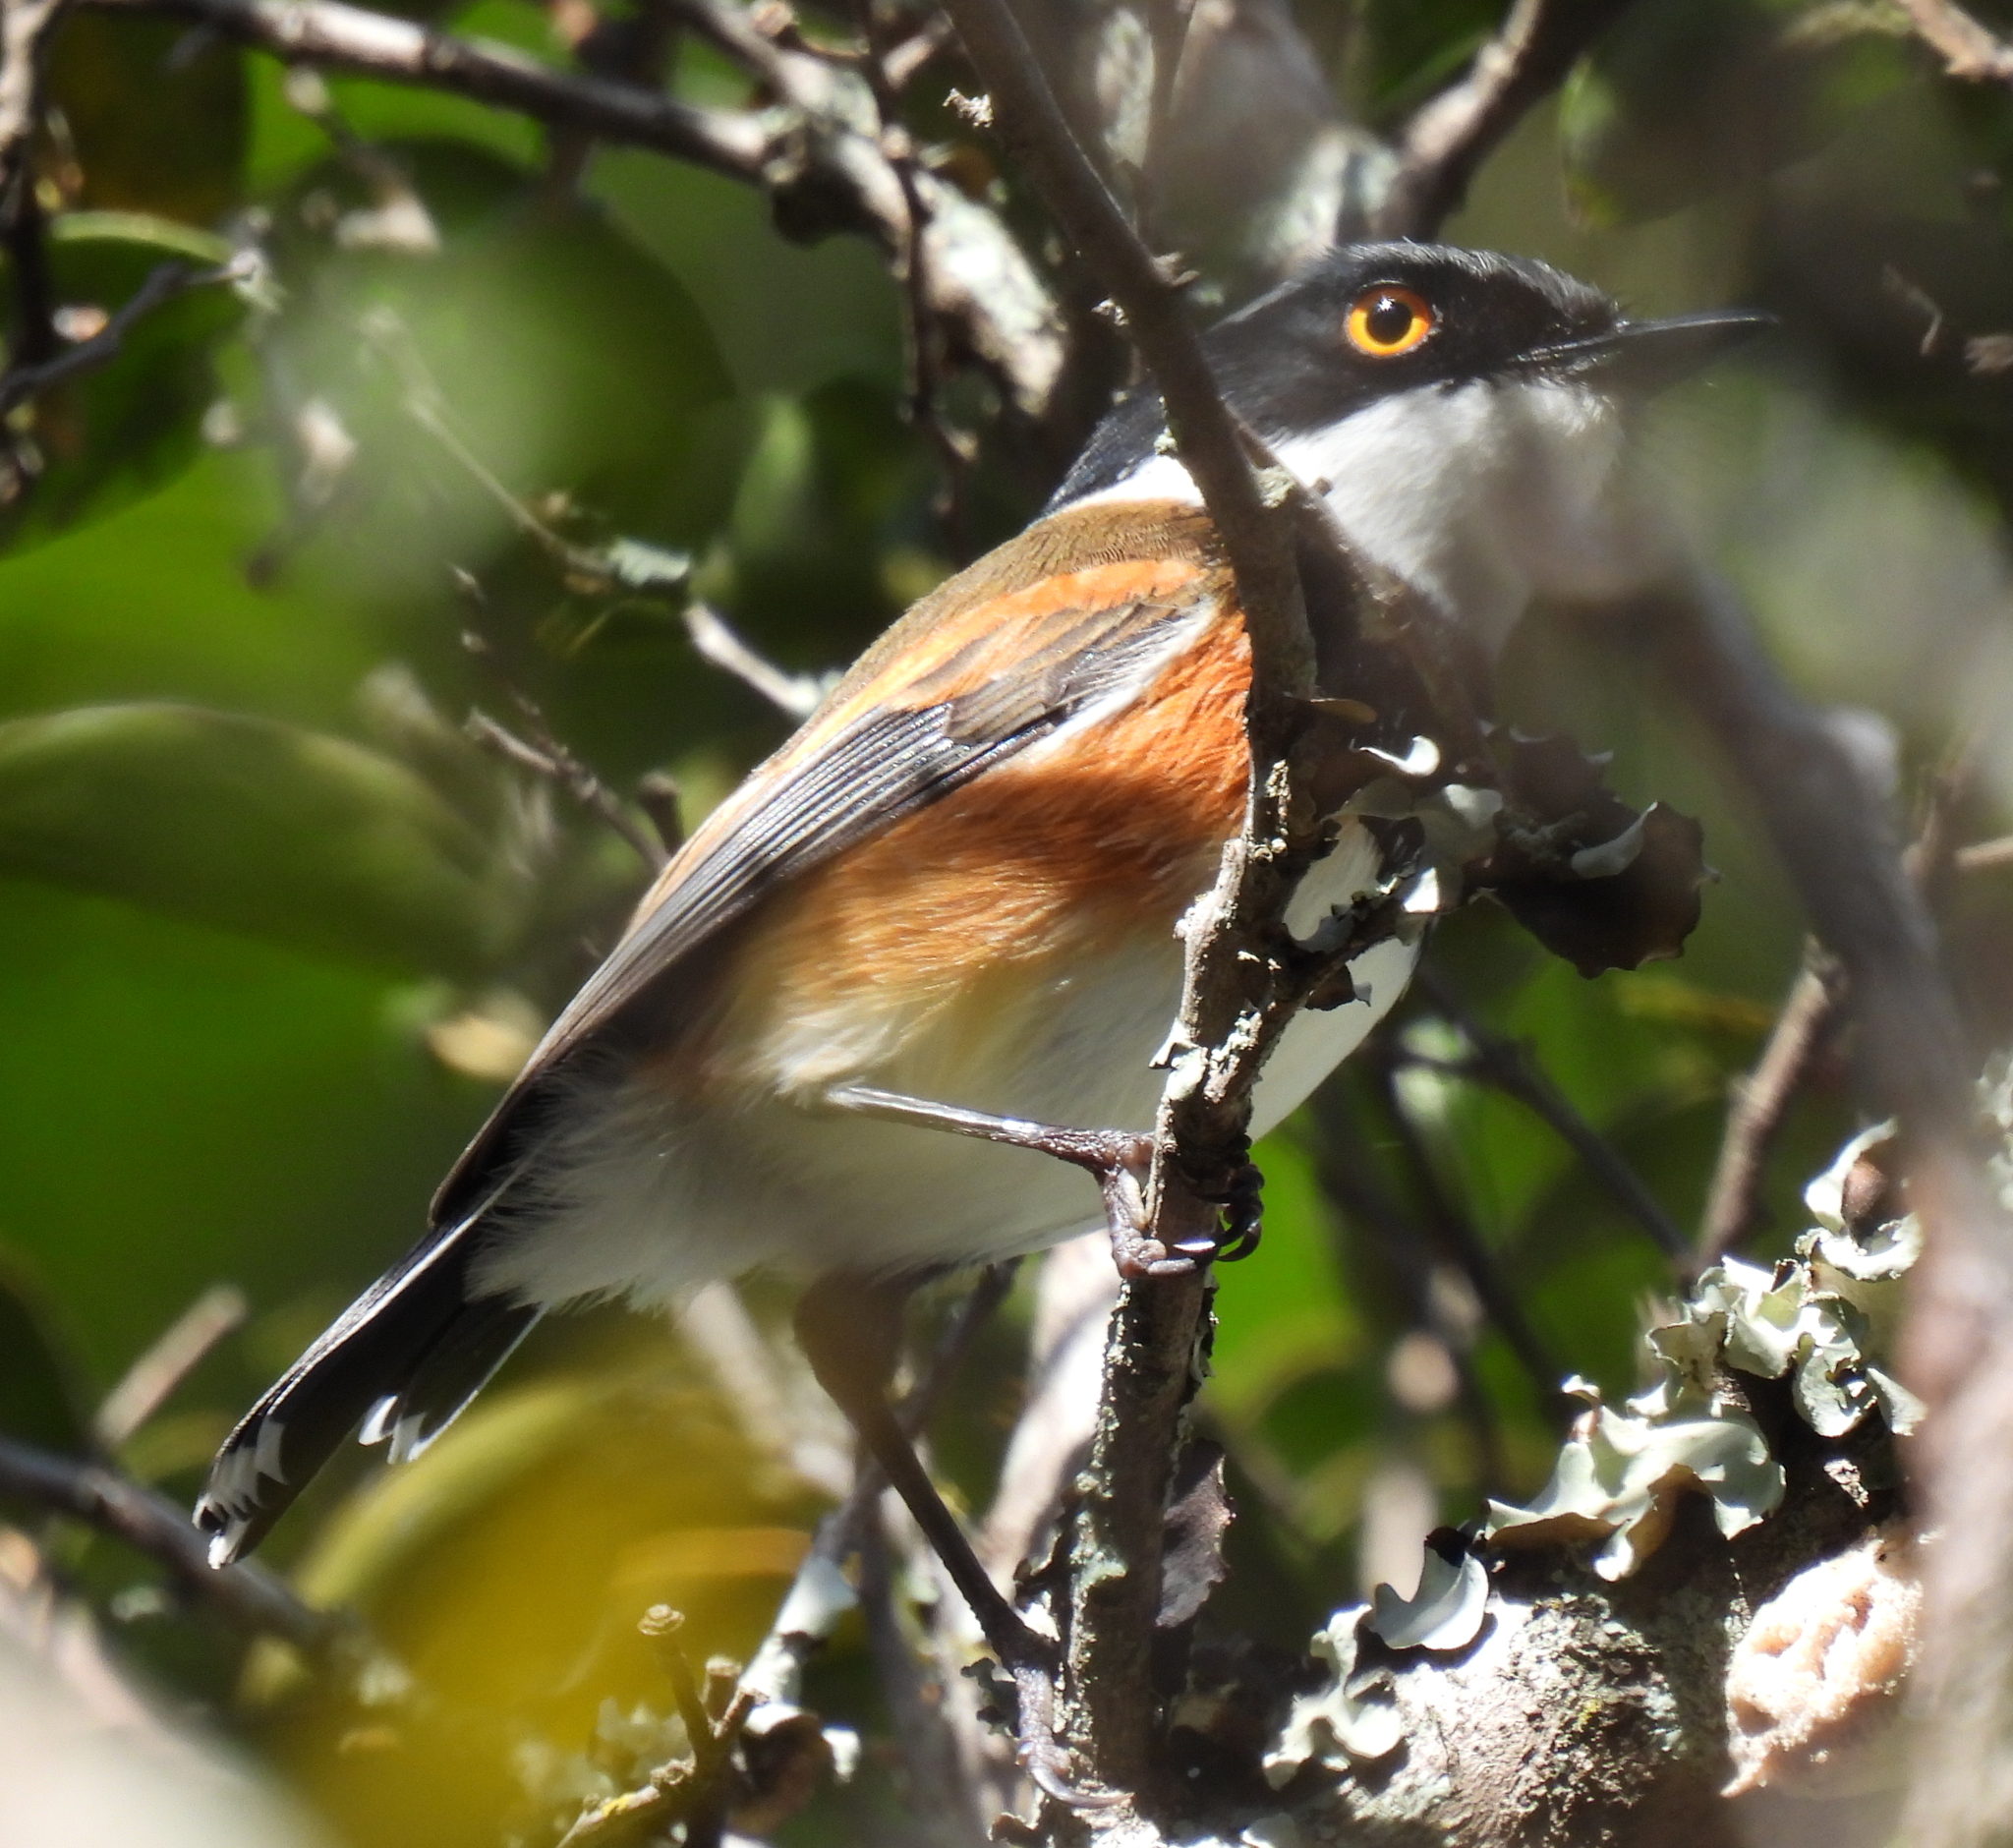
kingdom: Animalia
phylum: Chordata
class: Aves
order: Passeriformes
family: Platysteiridae
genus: Batis
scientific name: Batis capensis
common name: Cape batis
